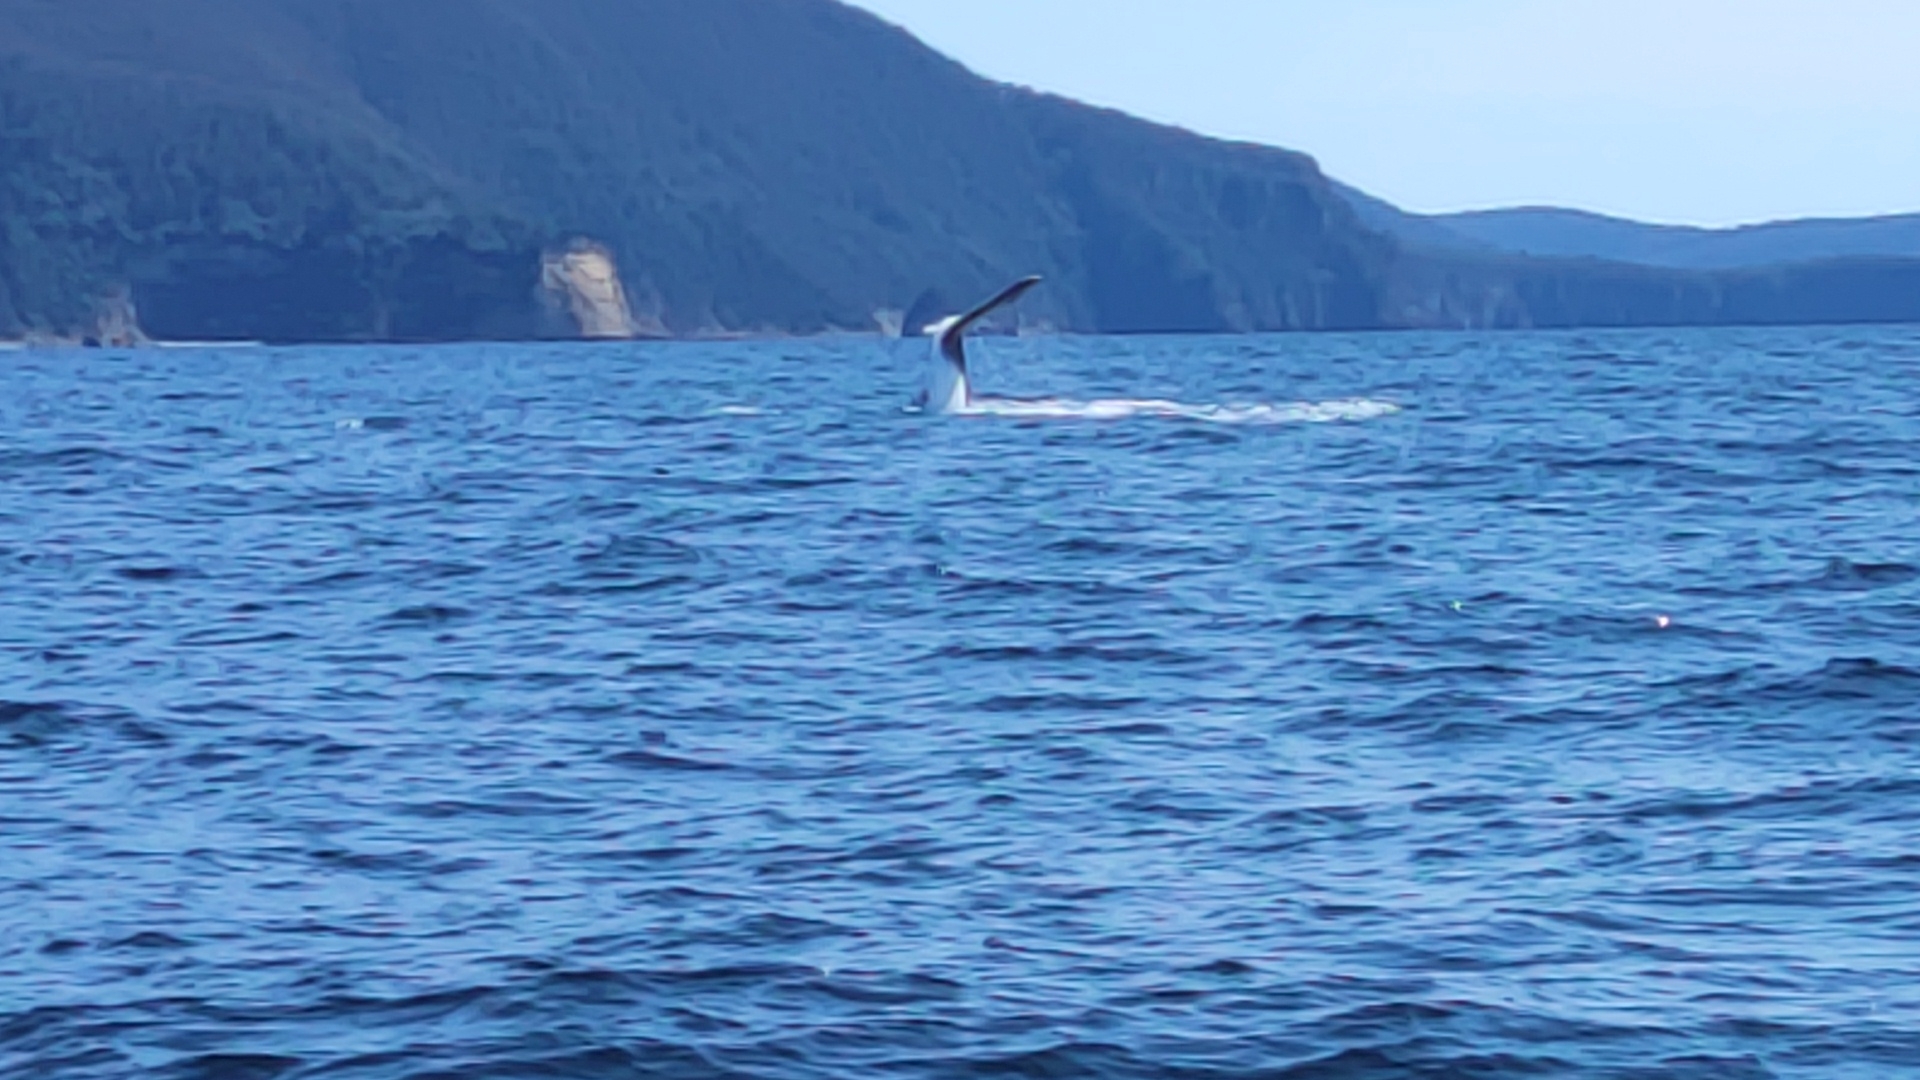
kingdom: Animalia
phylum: Chordata
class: Mammalia
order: Cetacea
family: Balaenopteridae
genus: Megaptera
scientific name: Megaptera novaeangliae
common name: Humpback whale
